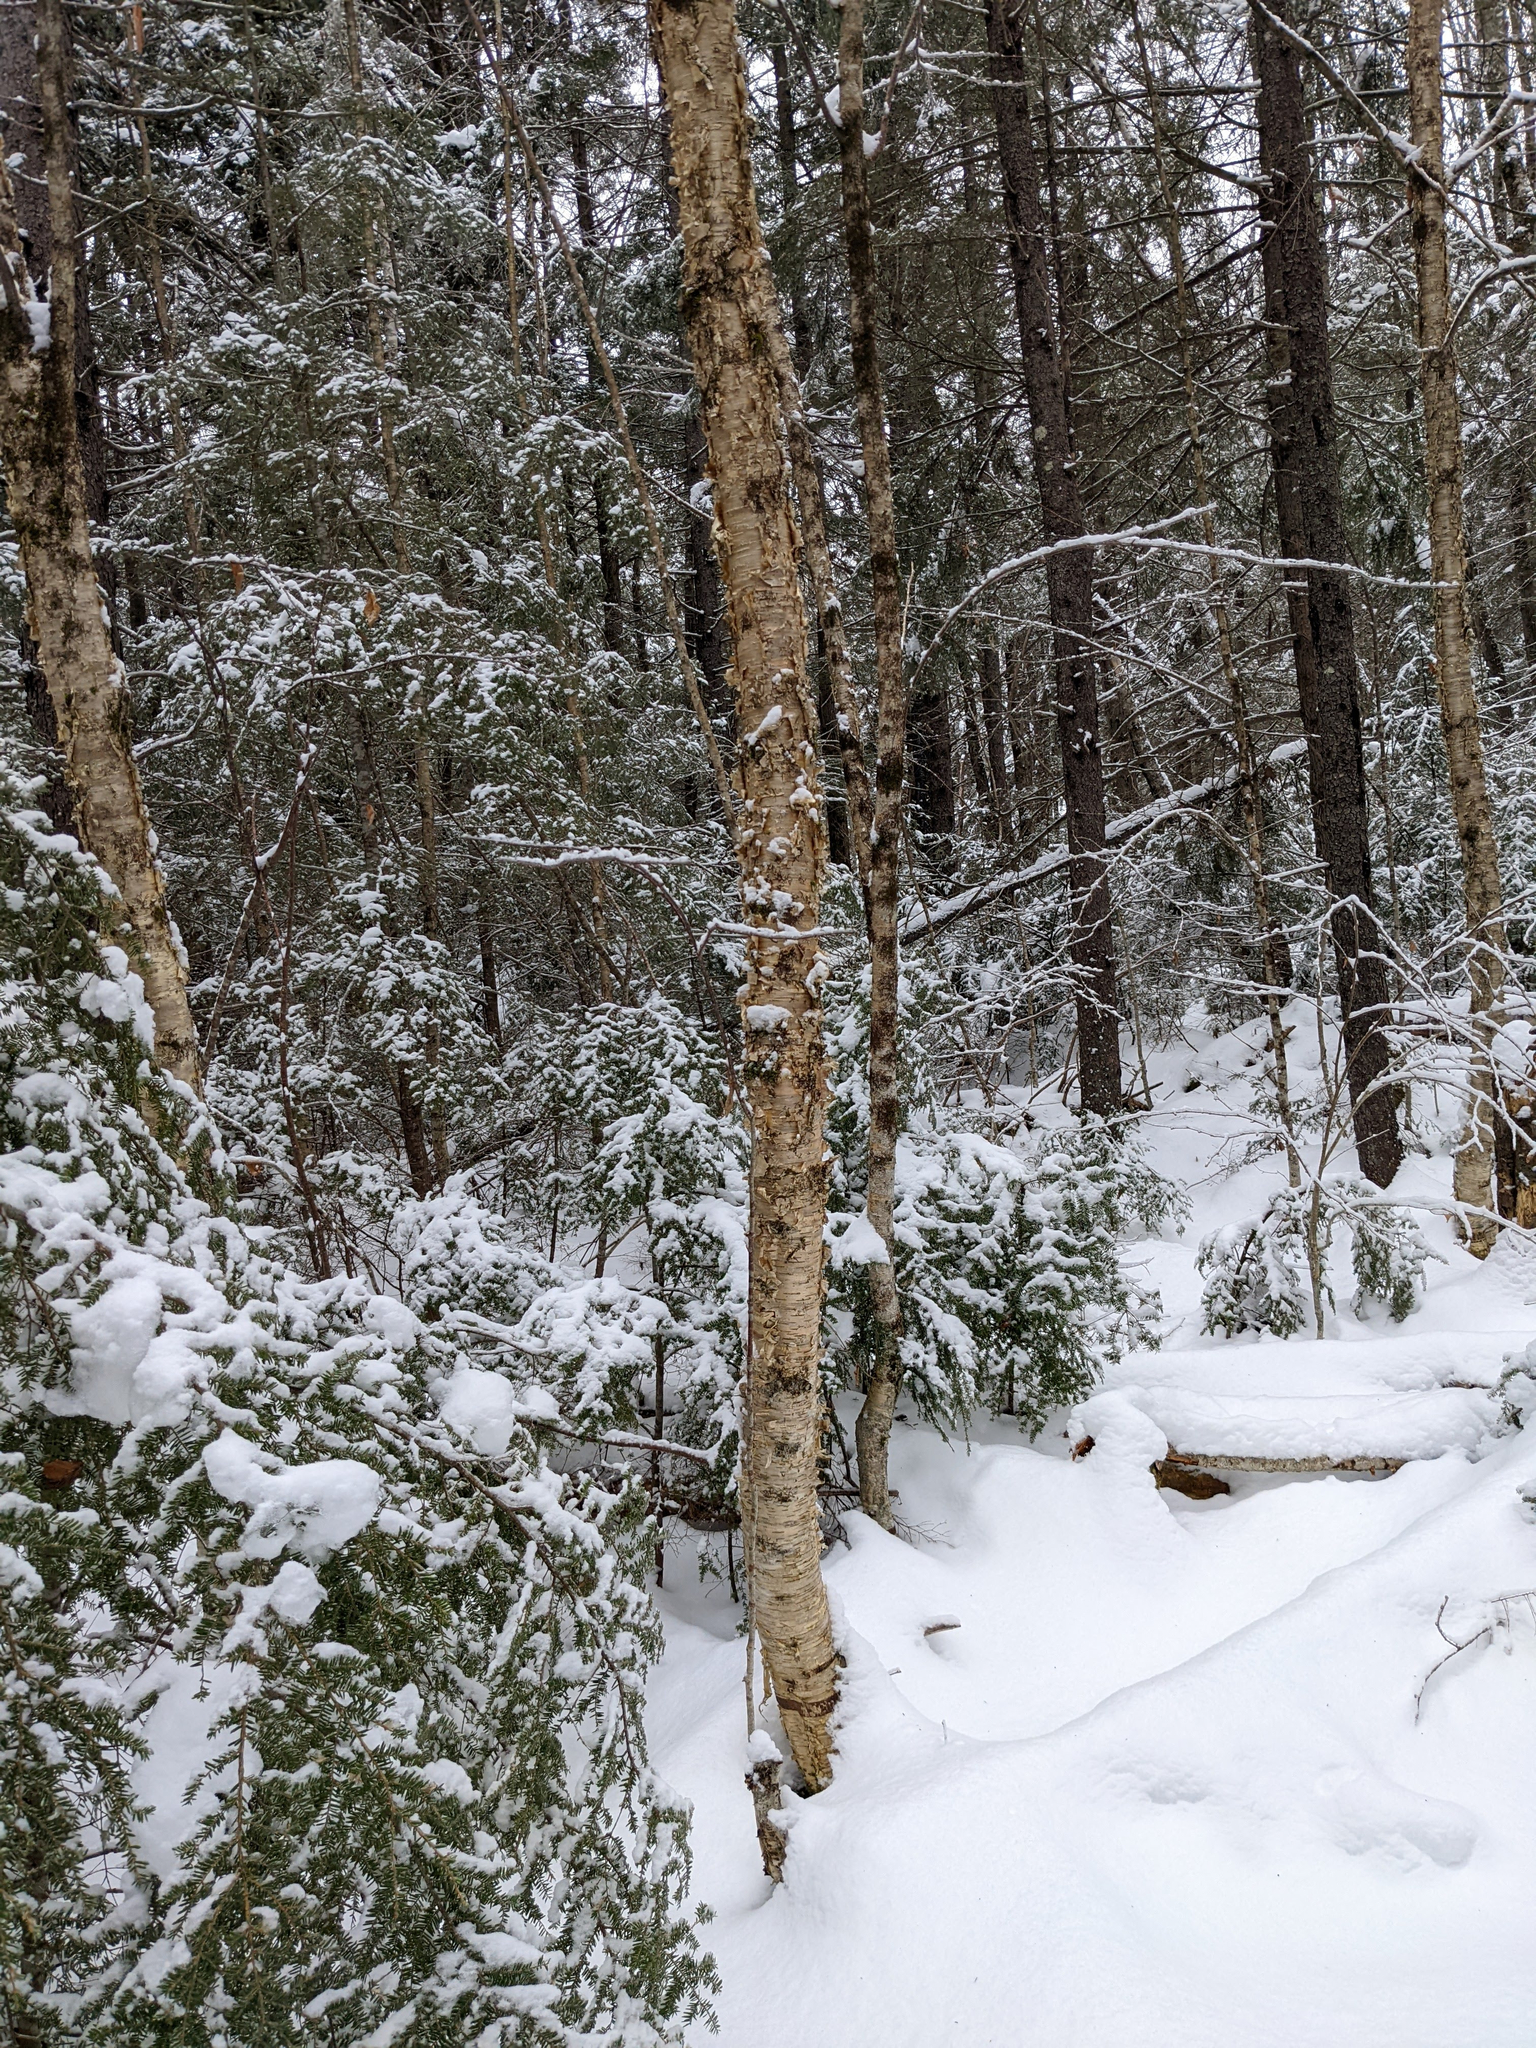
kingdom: Plantae
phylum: Tracheophyta
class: Magnoliopsida
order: Fagales
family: Betulaceae
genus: Betula
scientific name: Betula alleghaniensis
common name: Yellow birch
